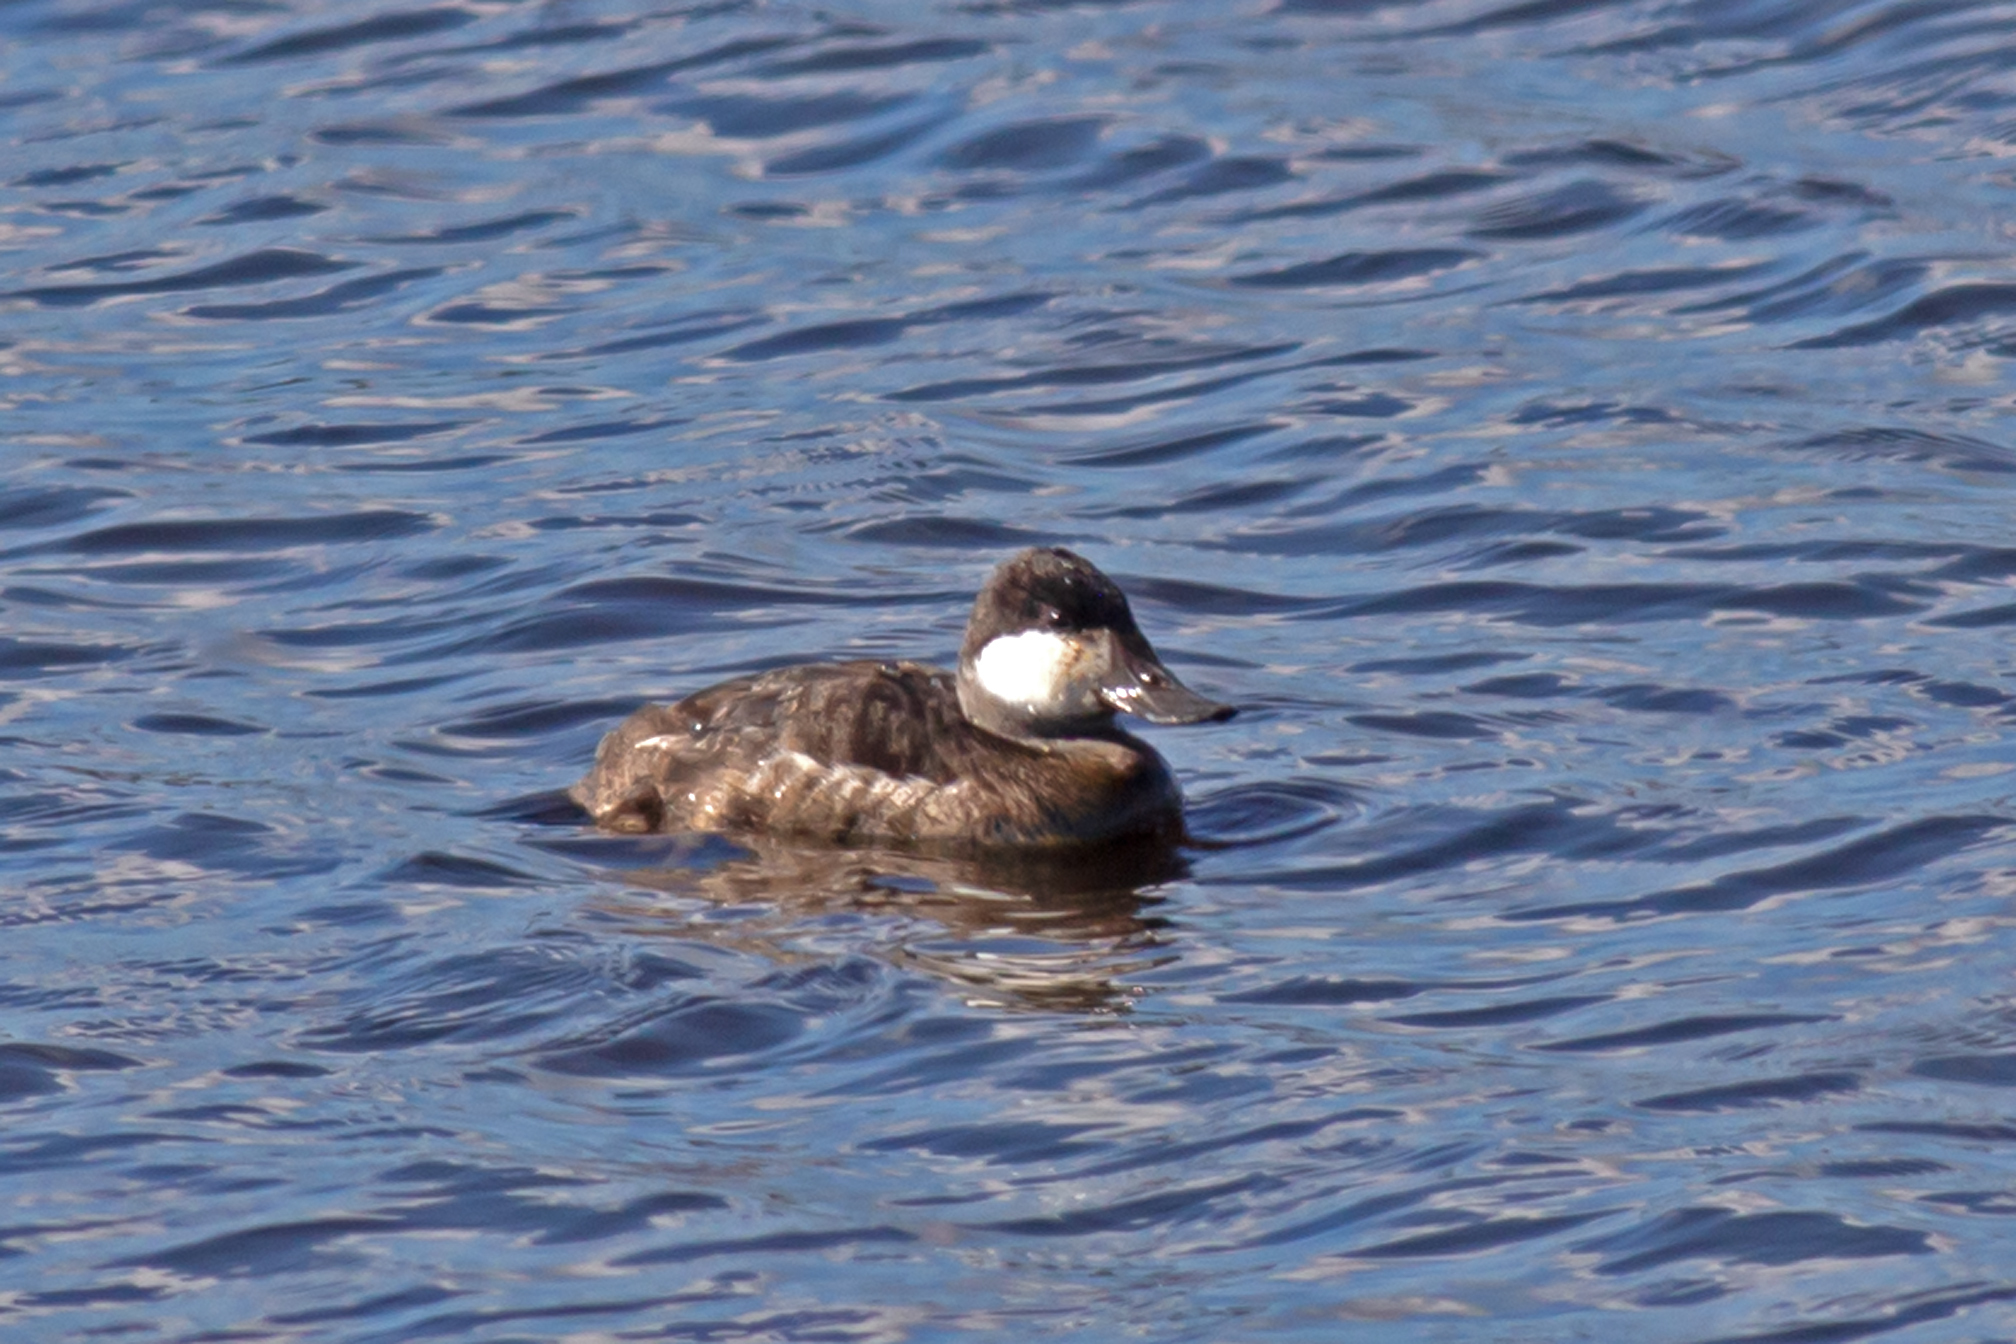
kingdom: Animalia
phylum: Chordata
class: Aves
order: Anseriformes
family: Anatidae
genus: Oxyura
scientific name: Oxyura jamaicensis
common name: Ruddy duck
